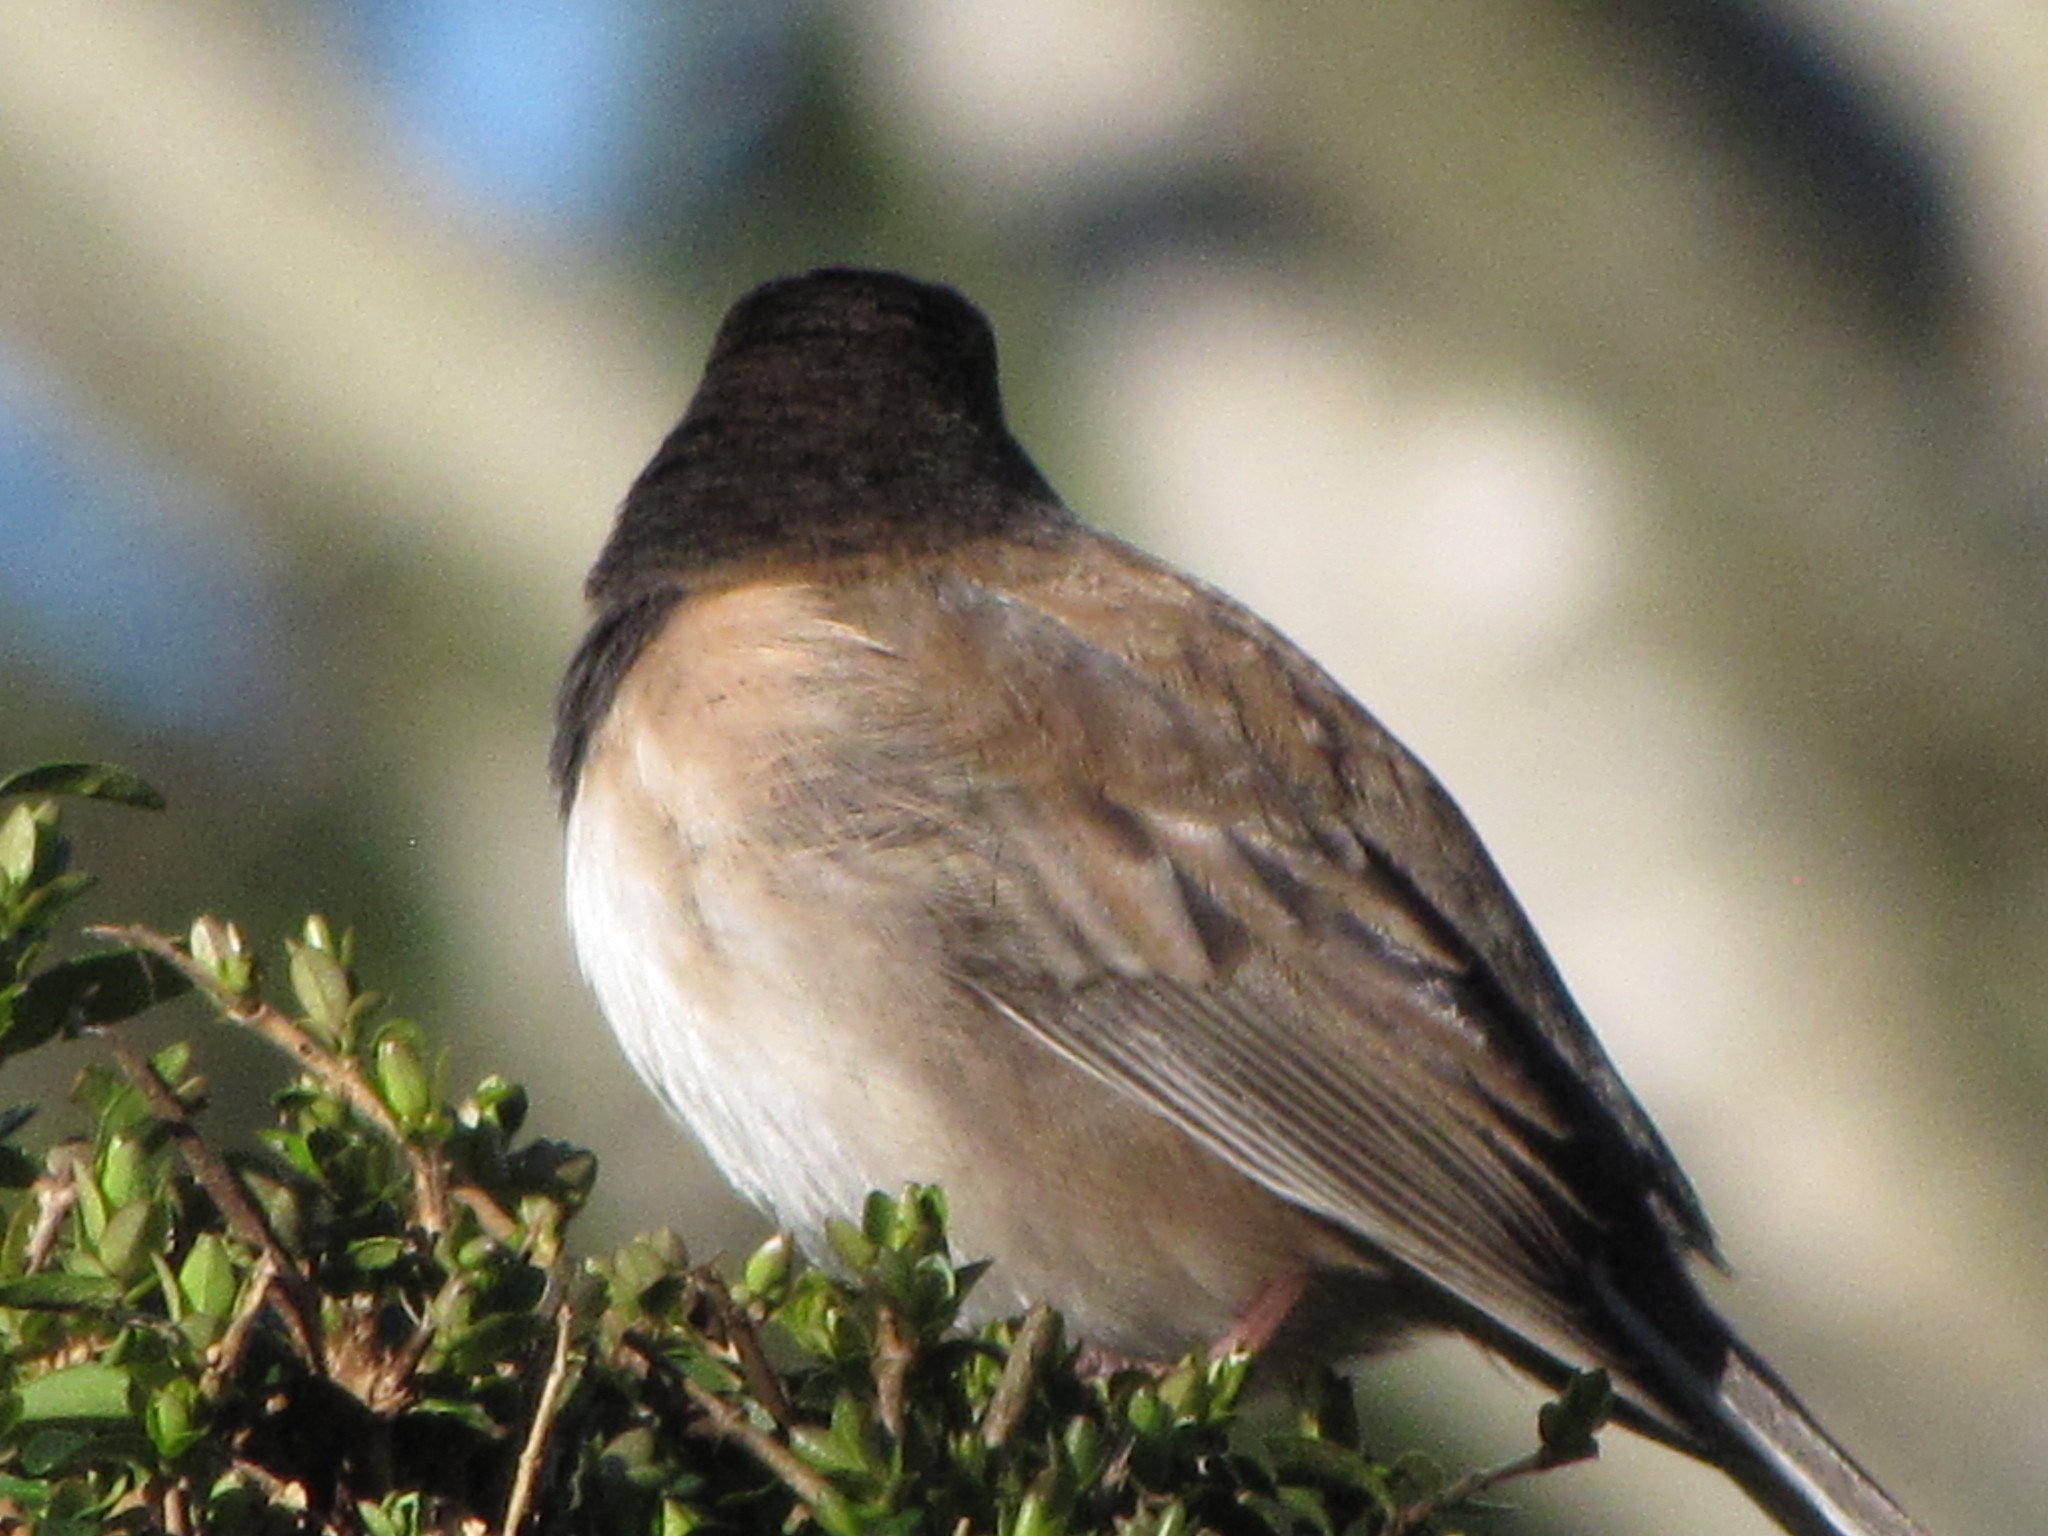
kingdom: Animalia
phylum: Chordata
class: Aves
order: Passeriformes
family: Passerellidae
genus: Junco
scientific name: Junco hyemalis
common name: Dark-eyed junco
